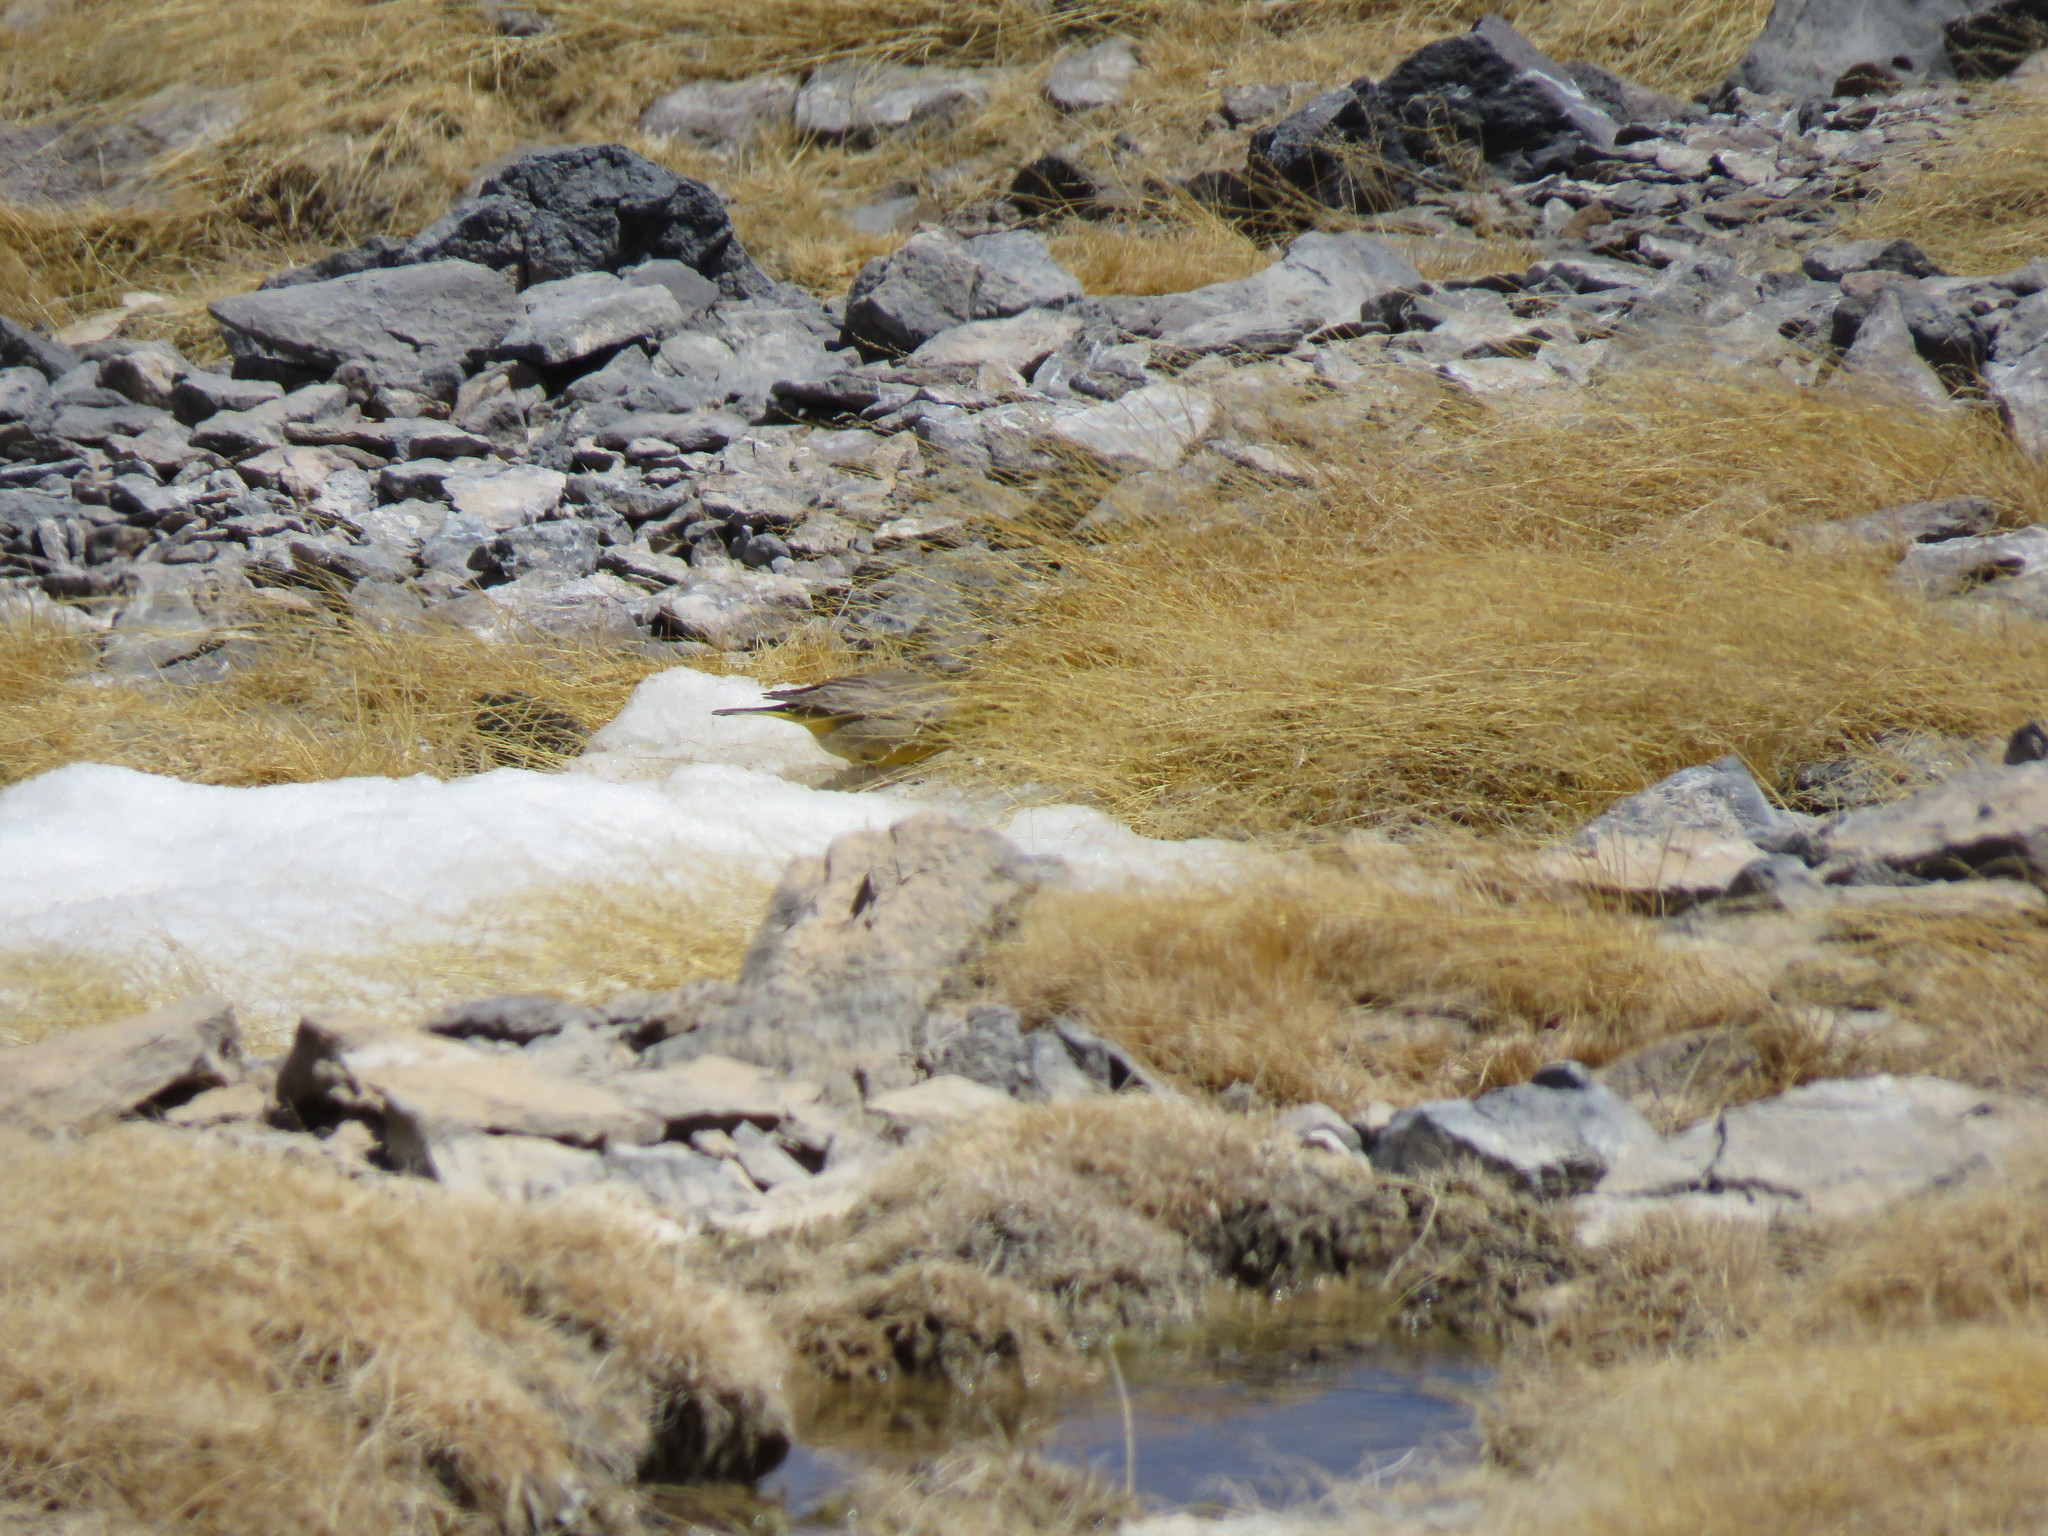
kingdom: Animalia
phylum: Chordata
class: Aves
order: Passeriformes
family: Thraupidae
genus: Sicalis
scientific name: Sicalis olivascens
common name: Greenish yellow finch
